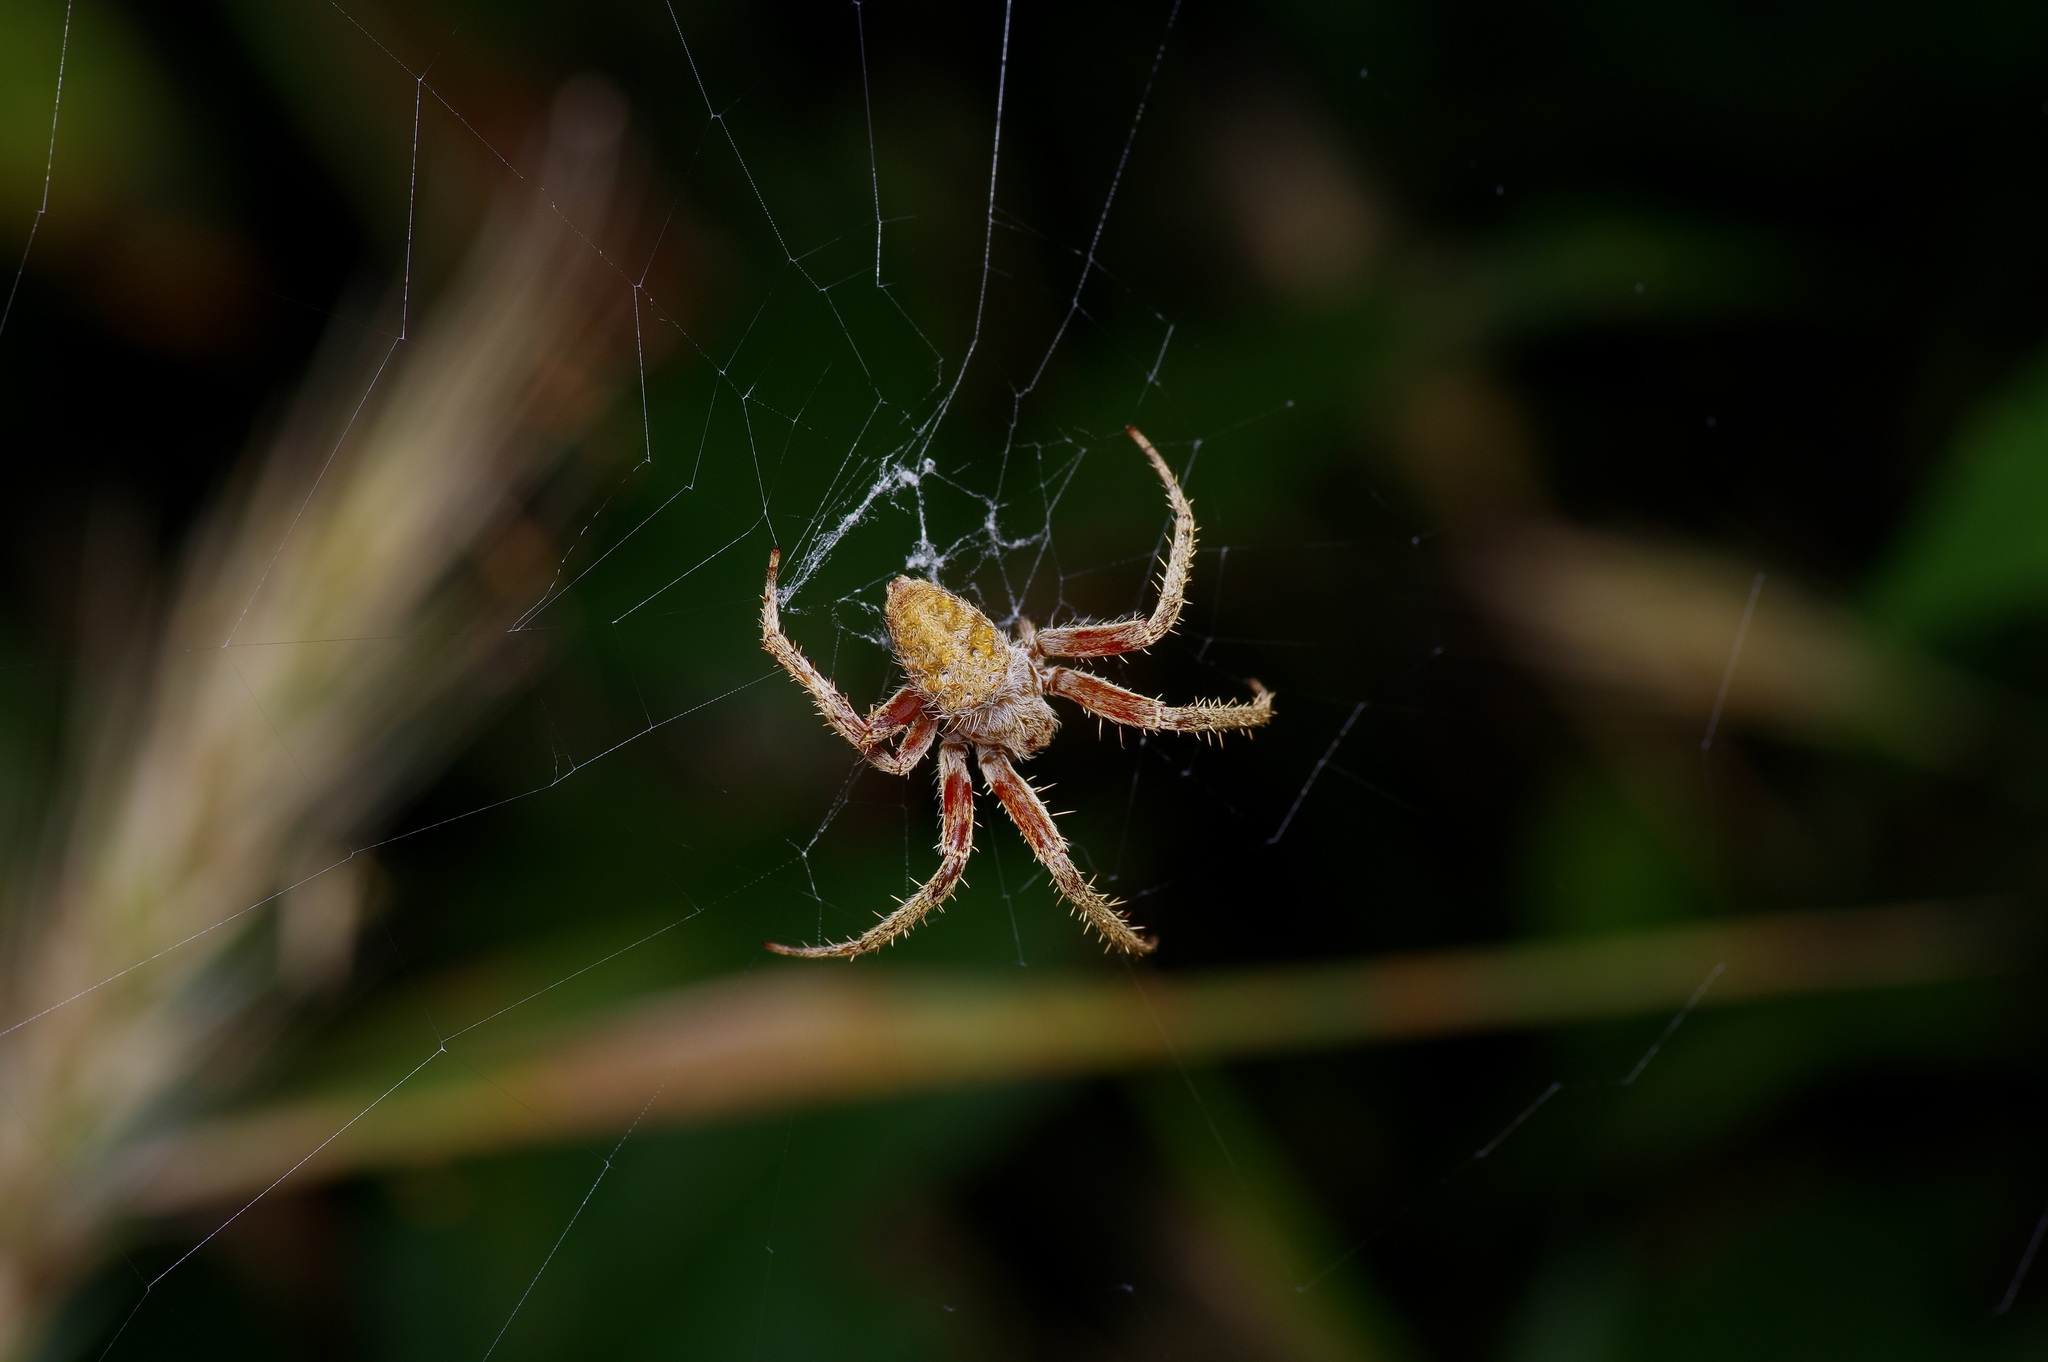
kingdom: Animalia
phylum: Arthropoda
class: Arachnida
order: Araneae
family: Araneidae
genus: Neoscona
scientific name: Neoscona crucifera
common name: Spotted orbweaver
